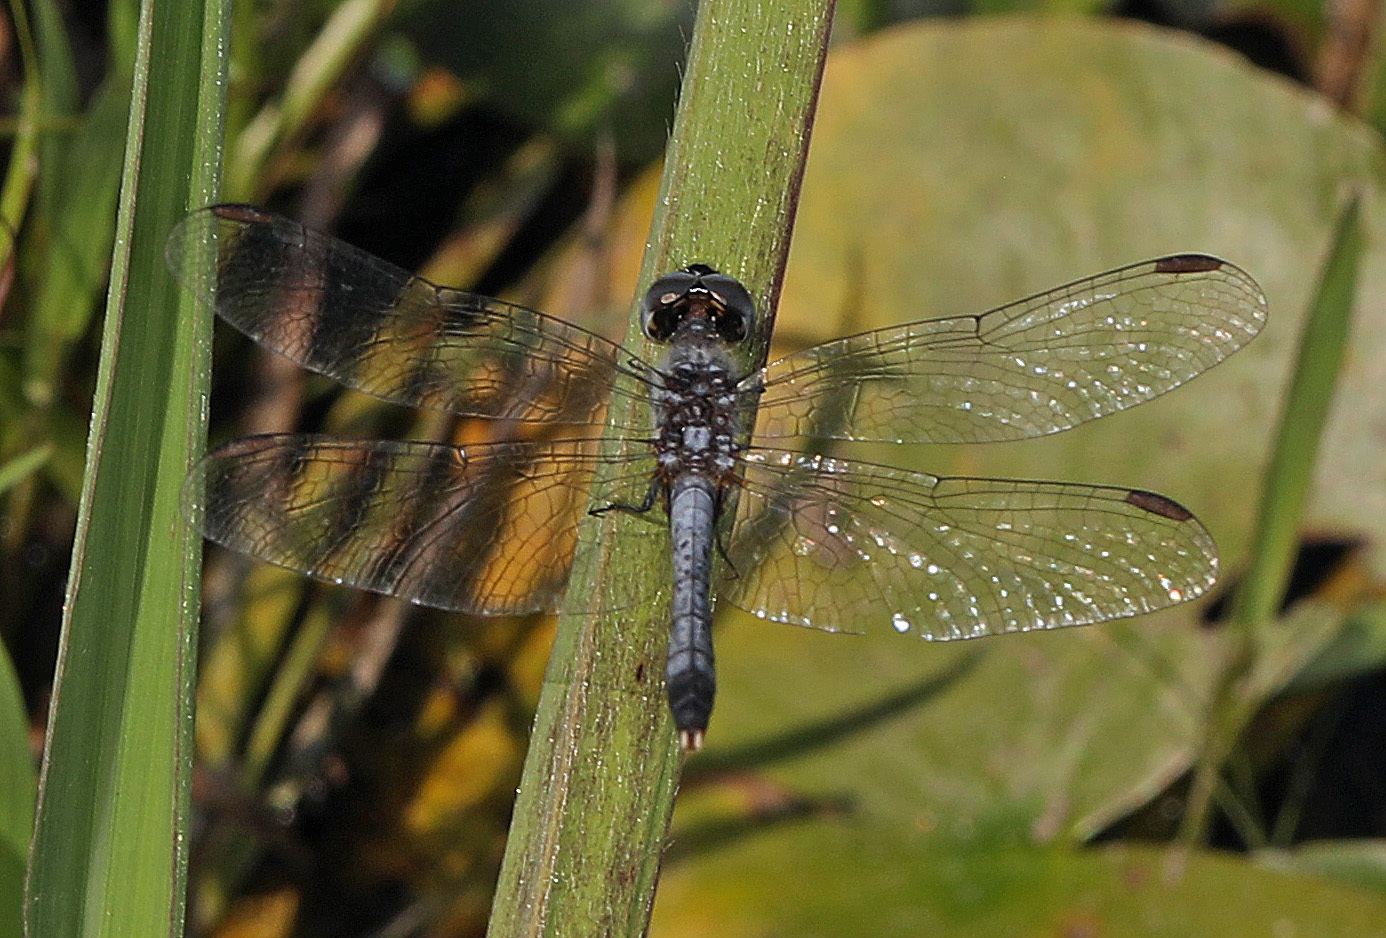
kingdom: Animalia
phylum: Arthropoda
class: Insecta
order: Odonata
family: Libellulidae
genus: Erythrodiplax
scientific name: Erythrodiplax minuscula
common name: Little blue dragonlet
